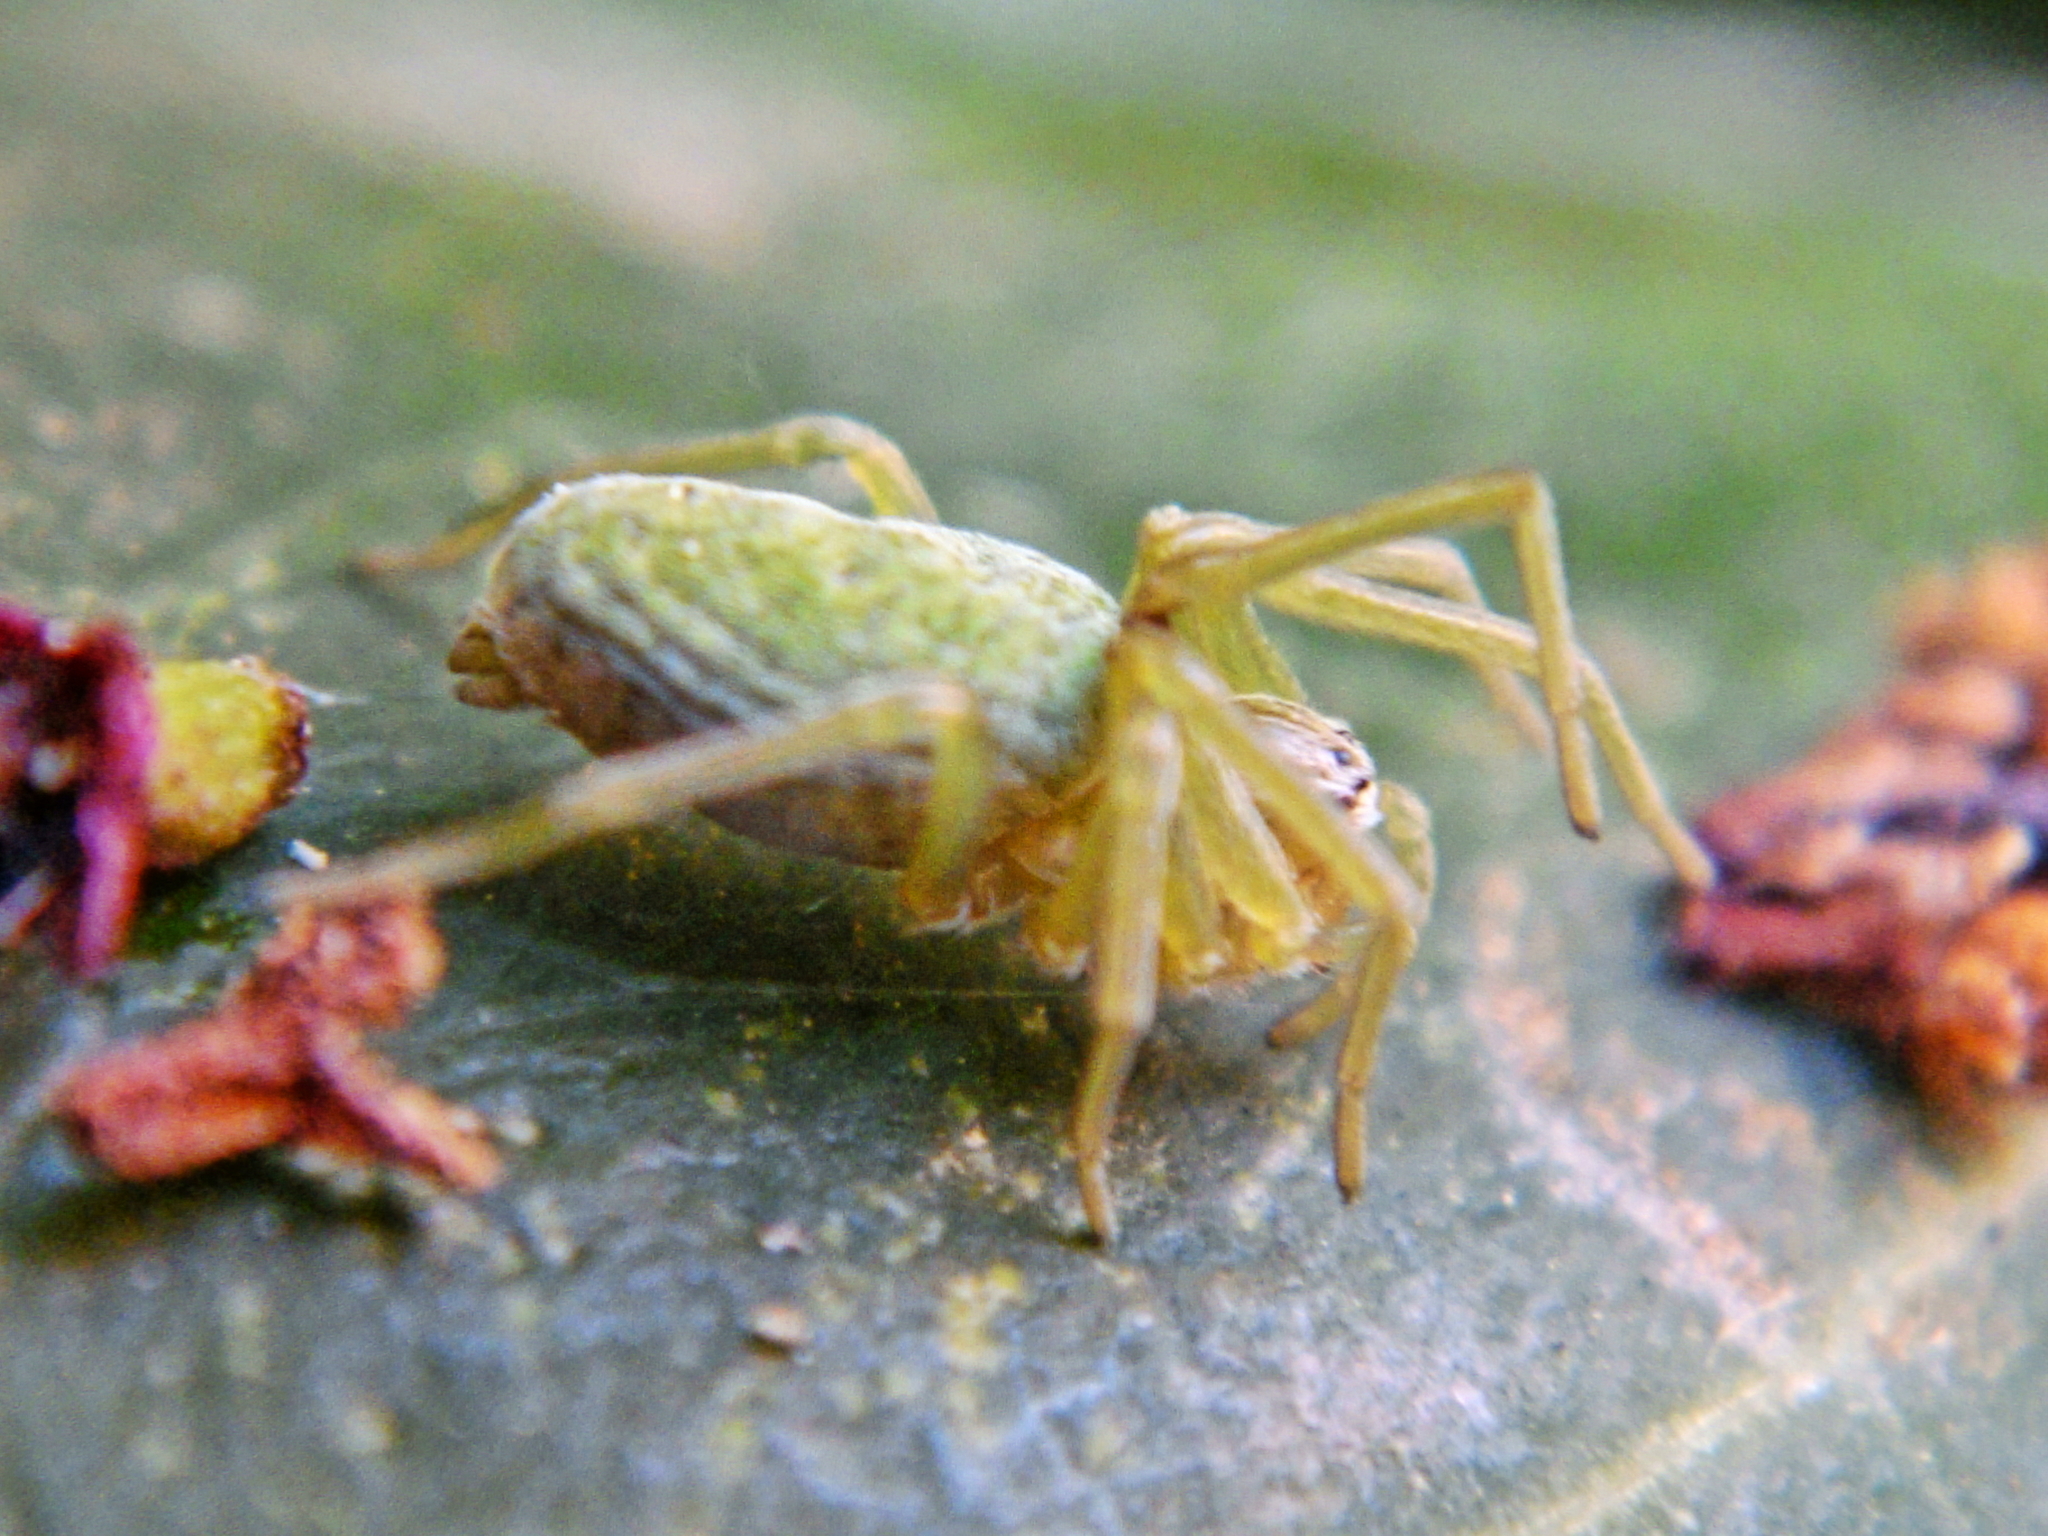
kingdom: Animalia
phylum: Arthropoda
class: Arachnida
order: Araneae
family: Dictynidae
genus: Nigma
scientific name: Nigma walckenaeri
